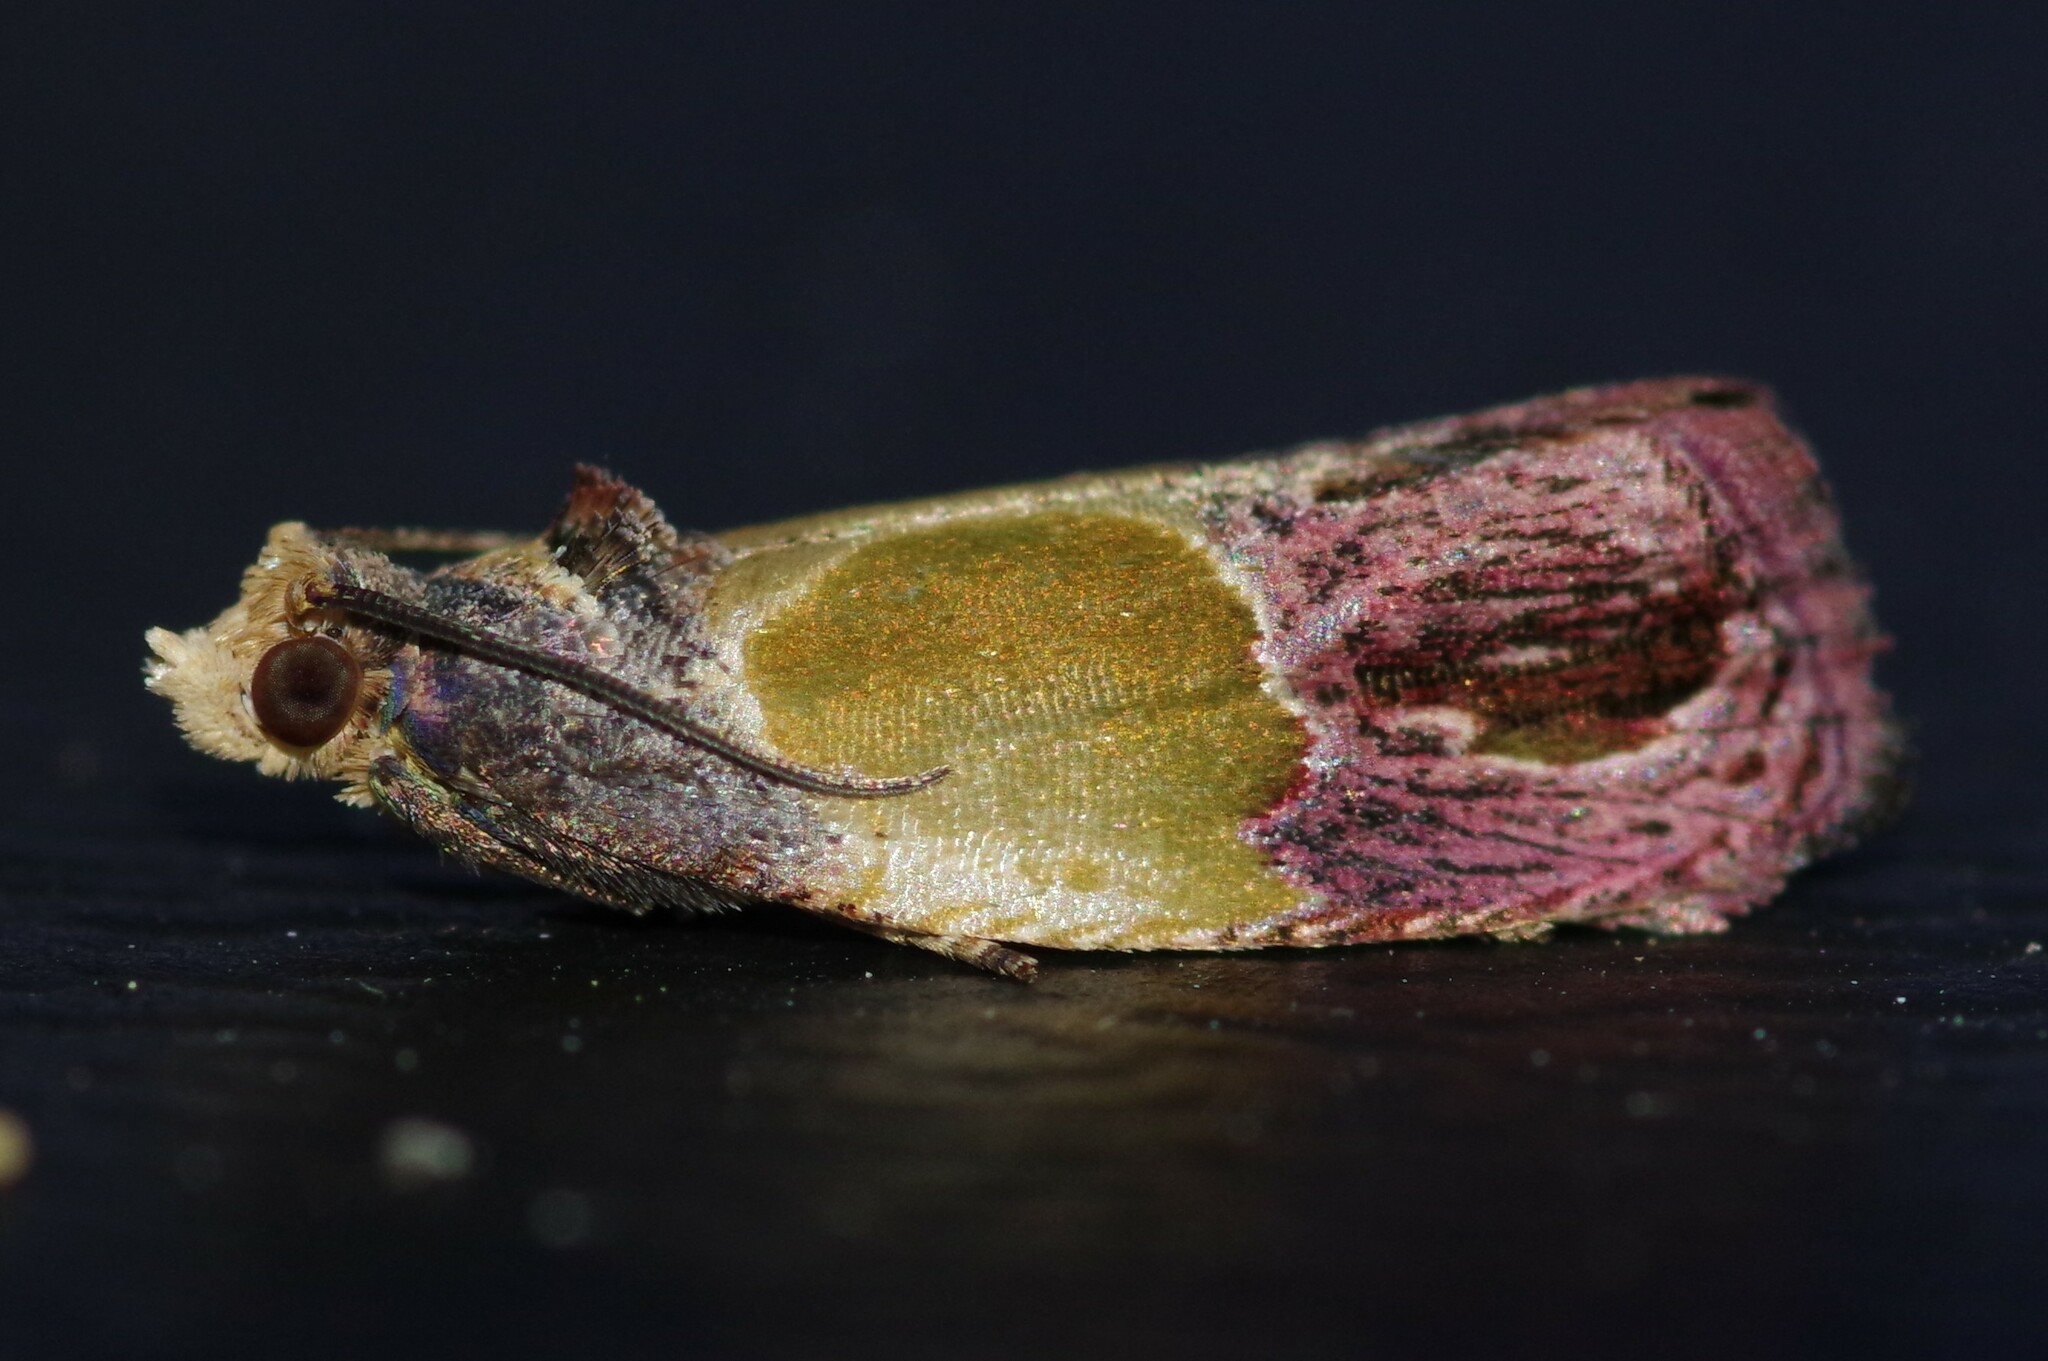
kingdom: Animalia
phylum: Arthropoda
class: Insecta
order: Lepidoptera
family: Tortricidae
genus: Eumarozia
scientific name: Eumarozia malachitana
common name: Sculptured moth
